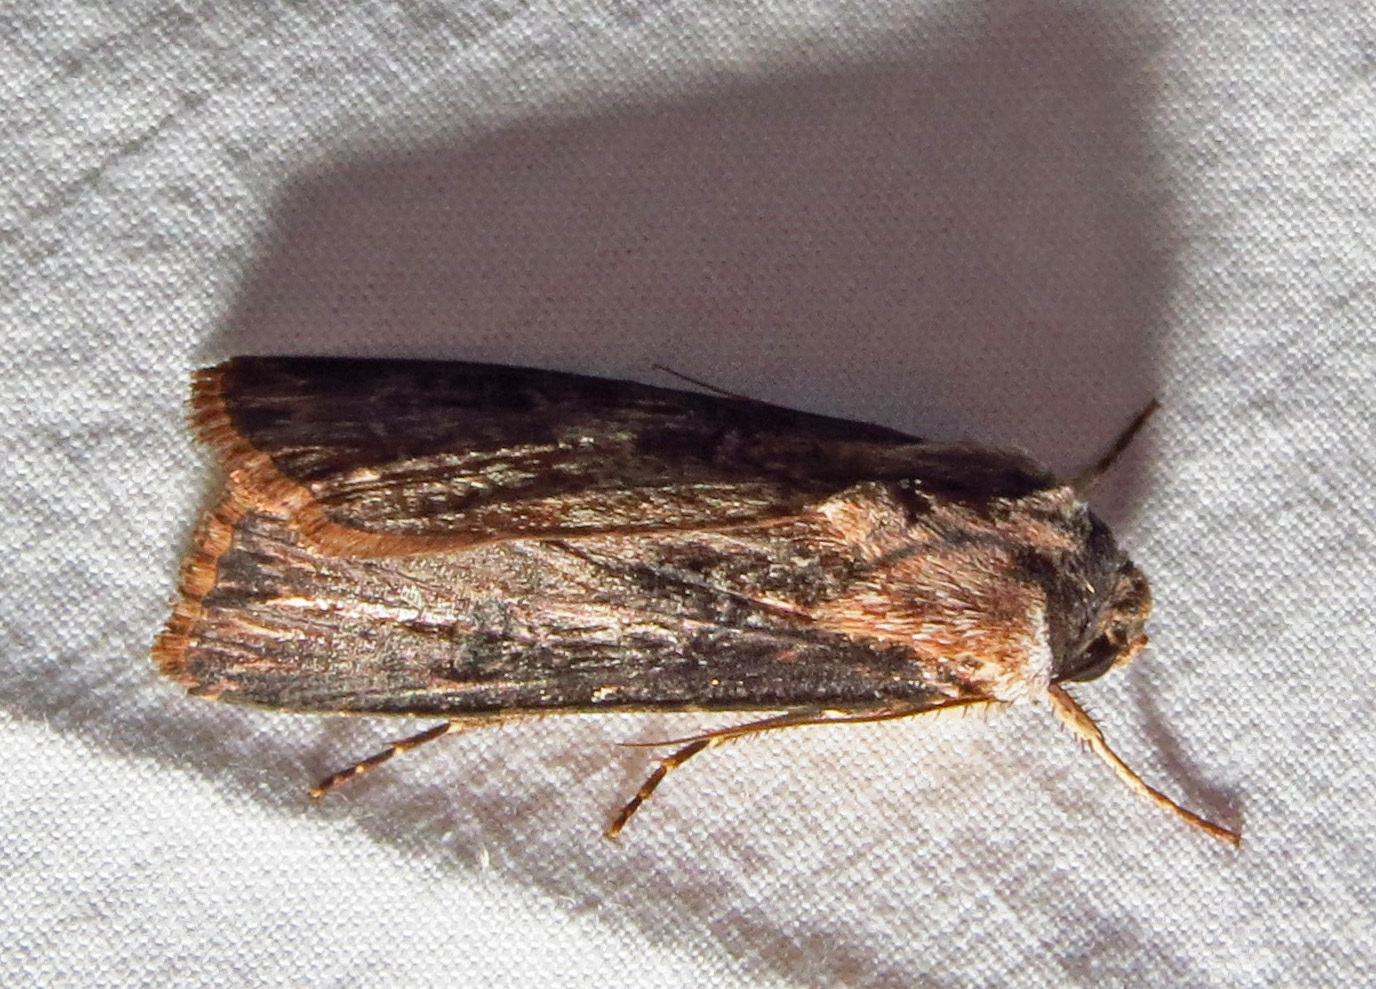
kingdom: Animalia
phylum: Arthropoda
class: Insecta
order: Lepidoptera
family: Noctuidae
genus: Agrotis
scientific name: Agrotis ipsilon
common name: Dark sword-grass
